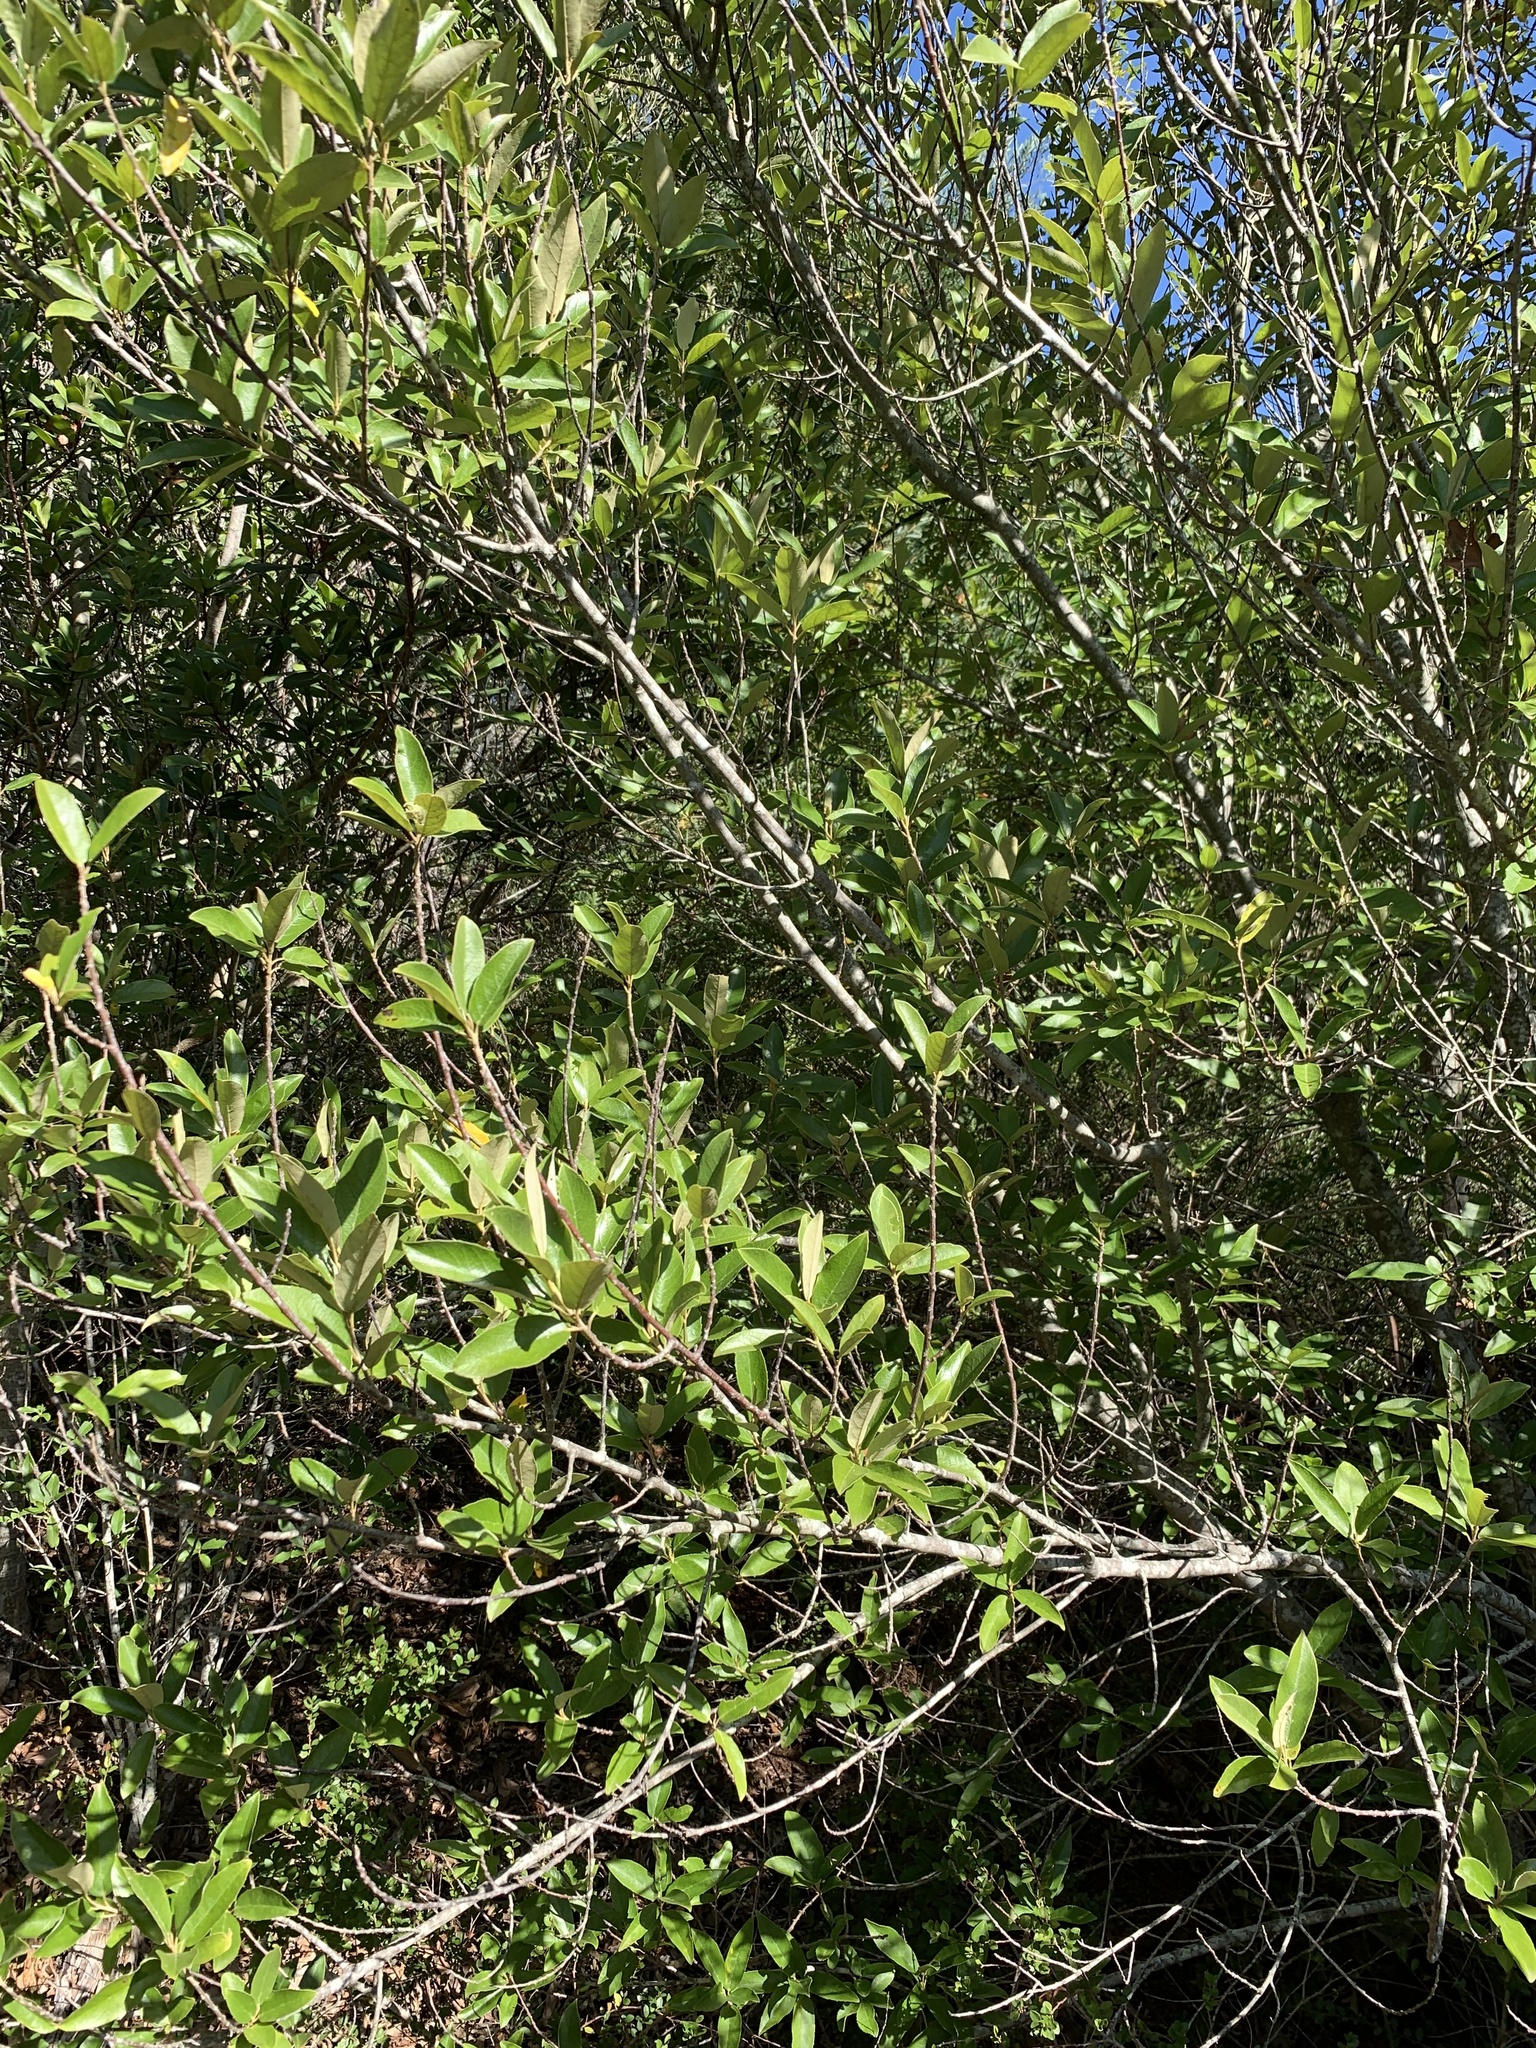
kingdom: Plantae
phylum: Tracheophyta
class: Magnoliopsida
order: Malpighiales
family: Achariaceae
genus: Kiggelaria
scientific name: Kiggelaria africana
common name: Wild peach
